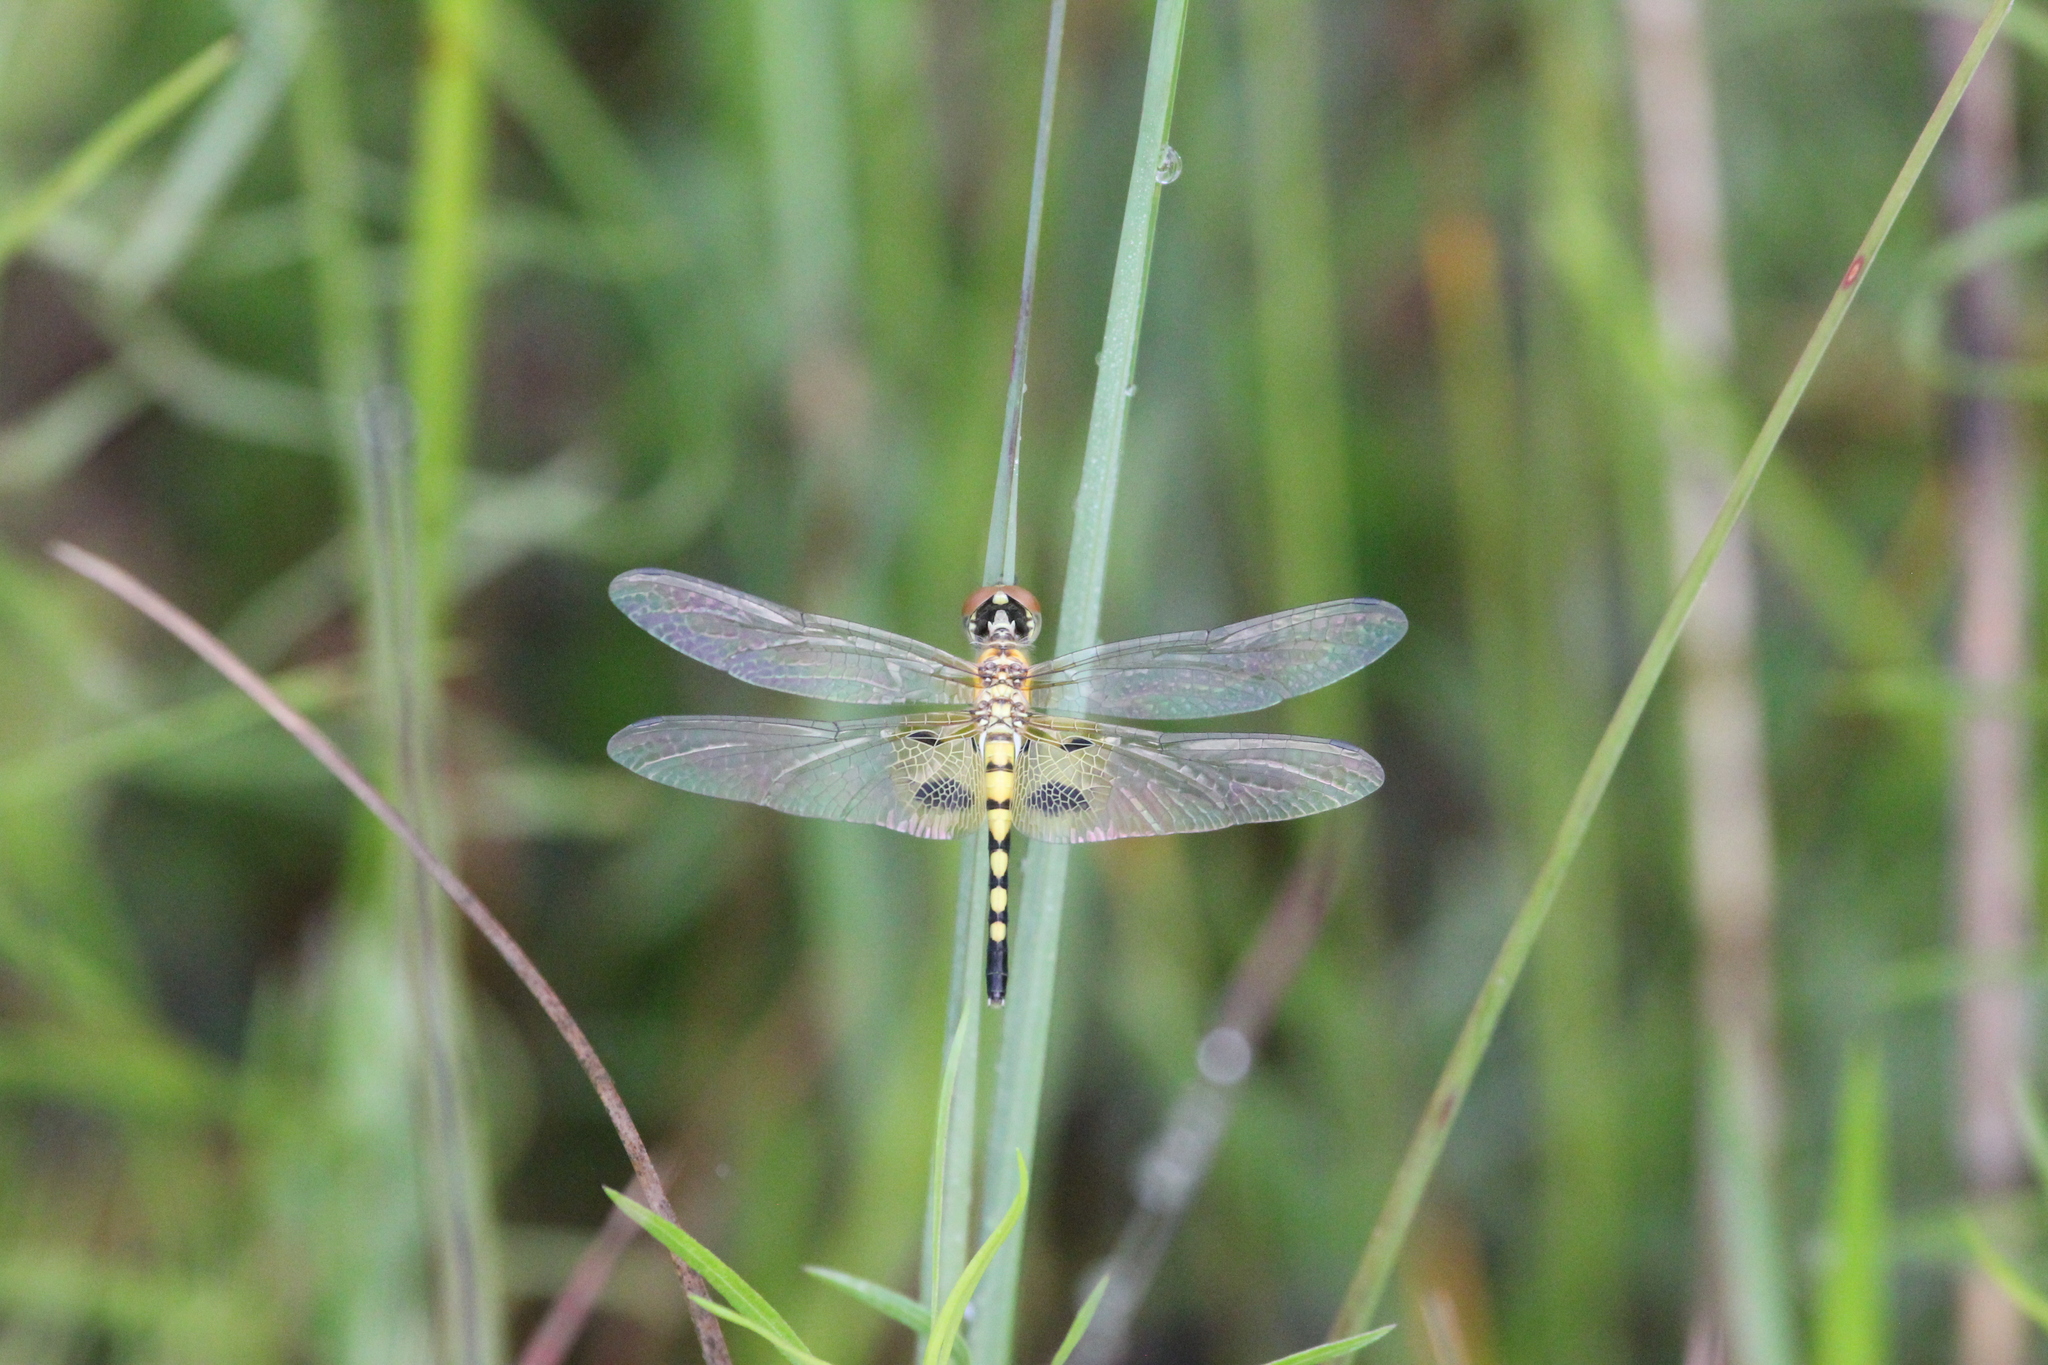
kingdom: Animalia
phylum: Arthropoda
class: Insecta
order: Odonata
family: Libellulidae
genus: Celithemis
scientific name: Celithemis amanda
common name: Amanda's pennant
